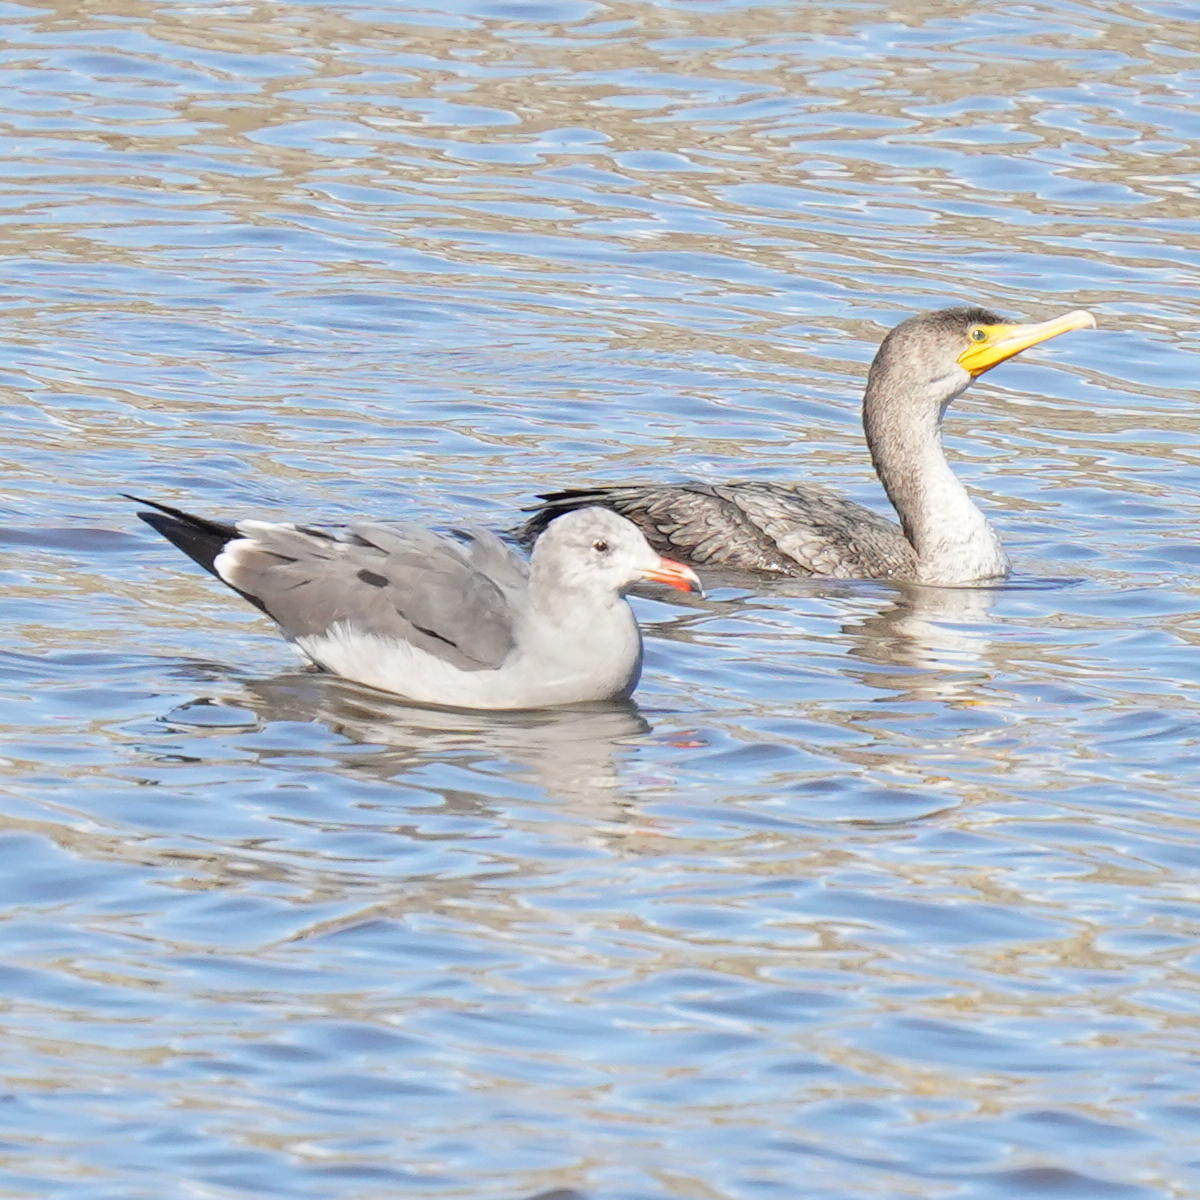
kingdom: Animalia
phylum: Chordata
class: Aves
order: Suliformes
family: Phalacrocoracidae
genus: Phalacrocorax
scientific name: Phalacrocorax auritus
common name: Double-crested cormorant
